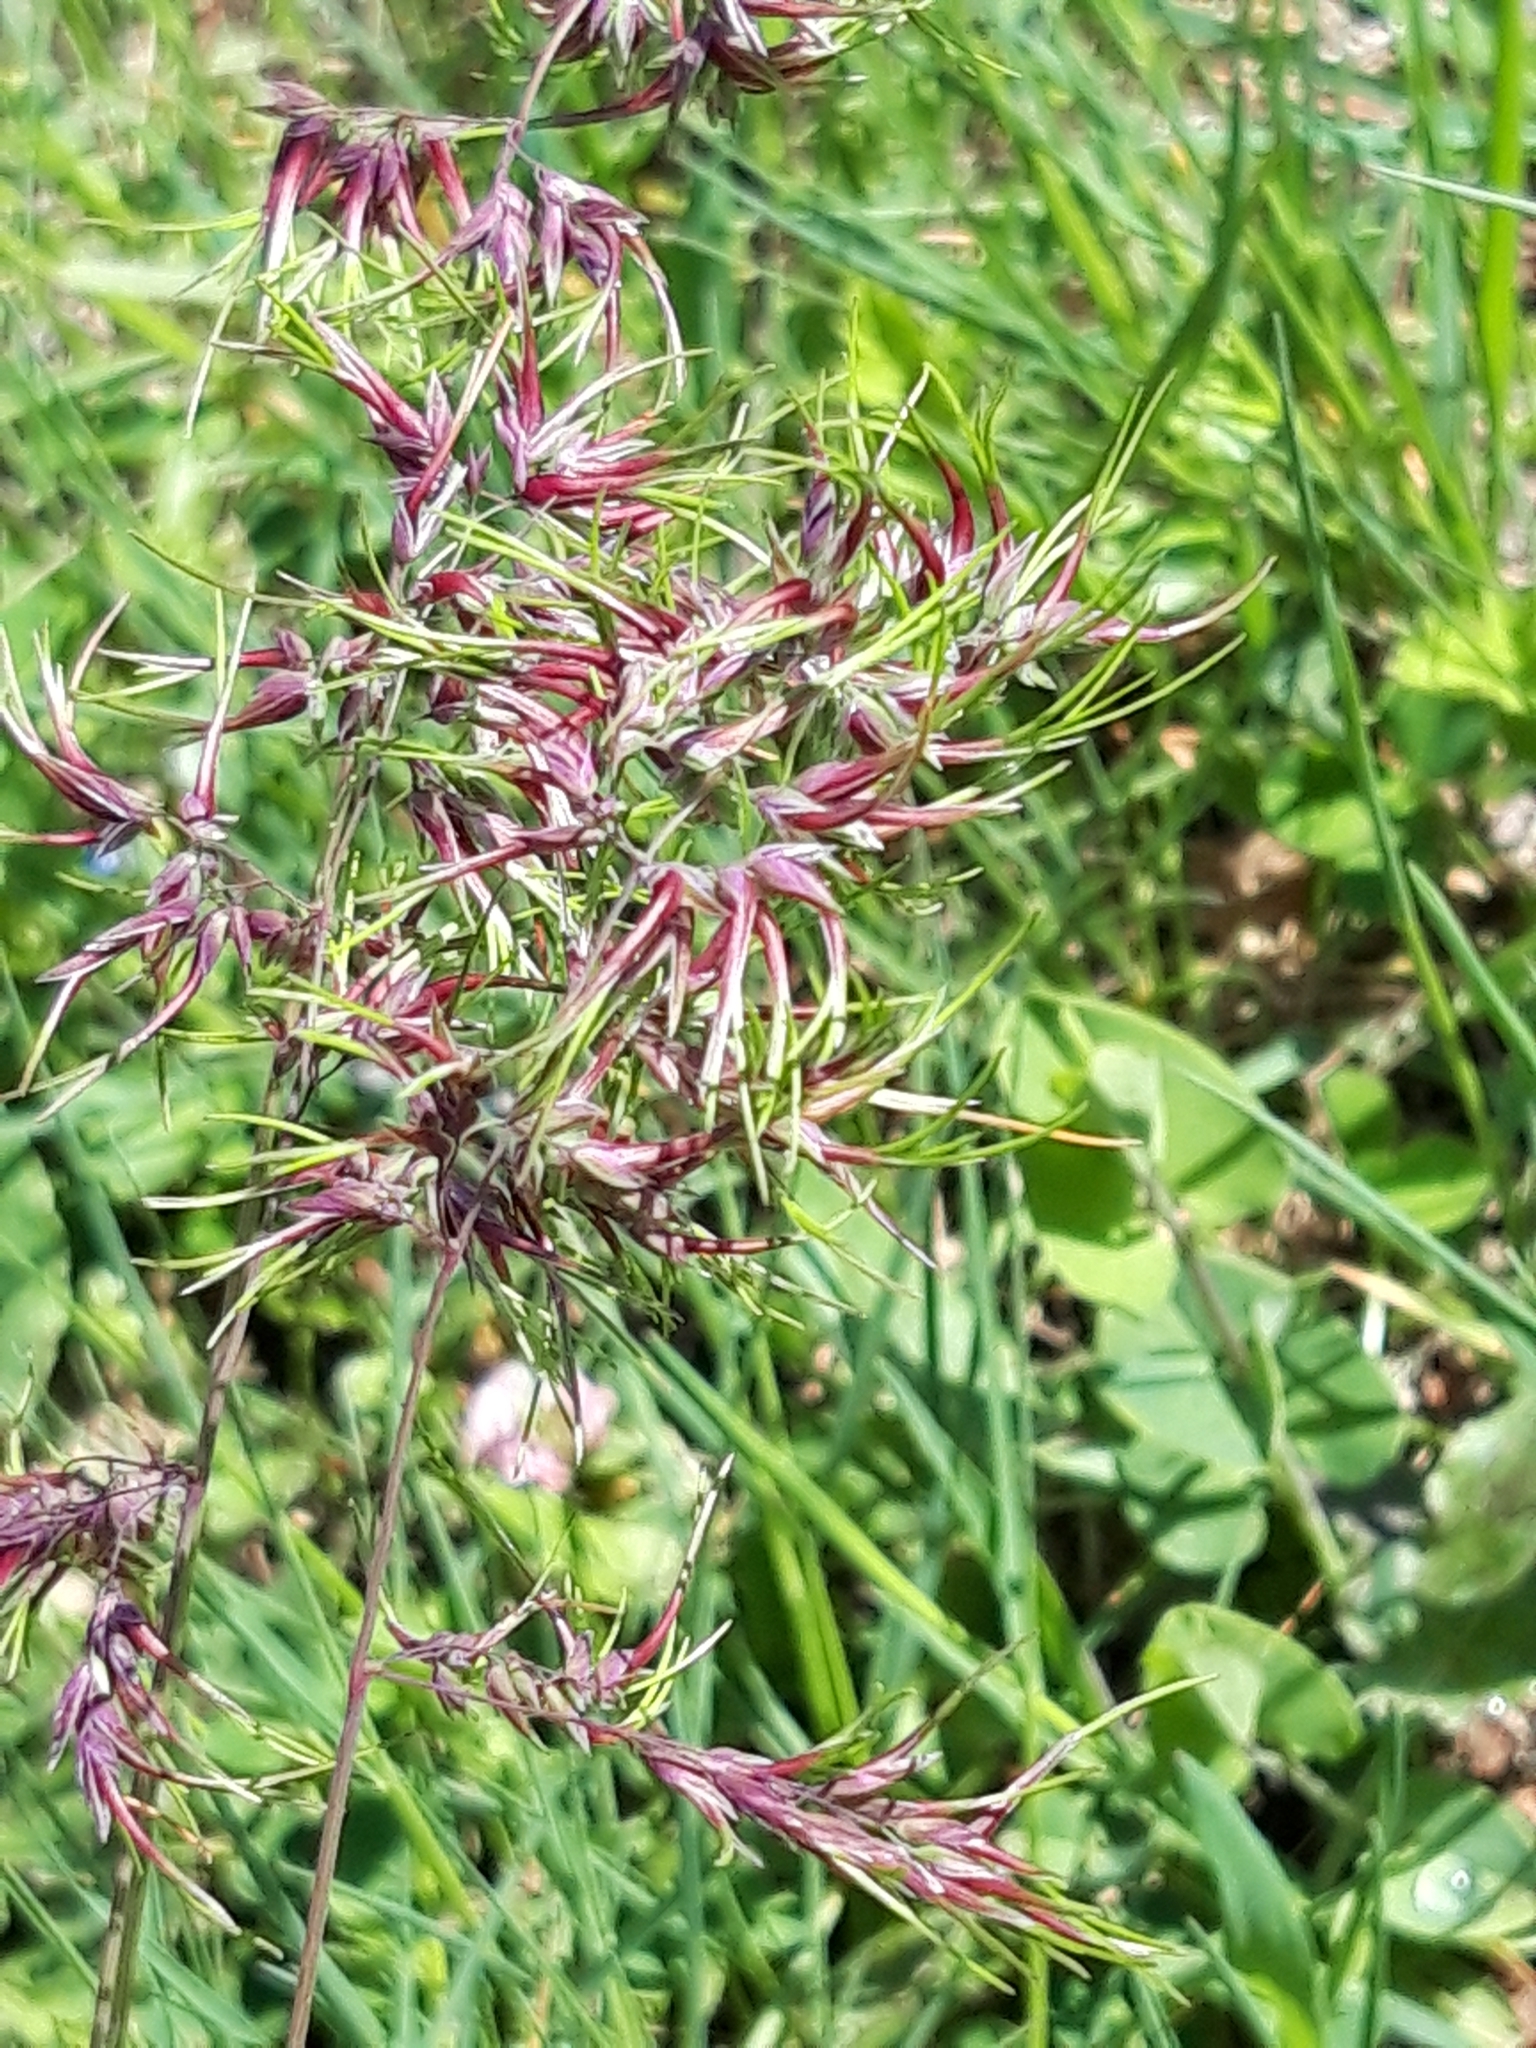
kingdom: Plantae
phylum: Tracheophyta
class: Liliopsida
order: Poales
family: Poaceae
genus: Poa
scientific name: Poa bulbosa
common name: Bulbous bluegrass
